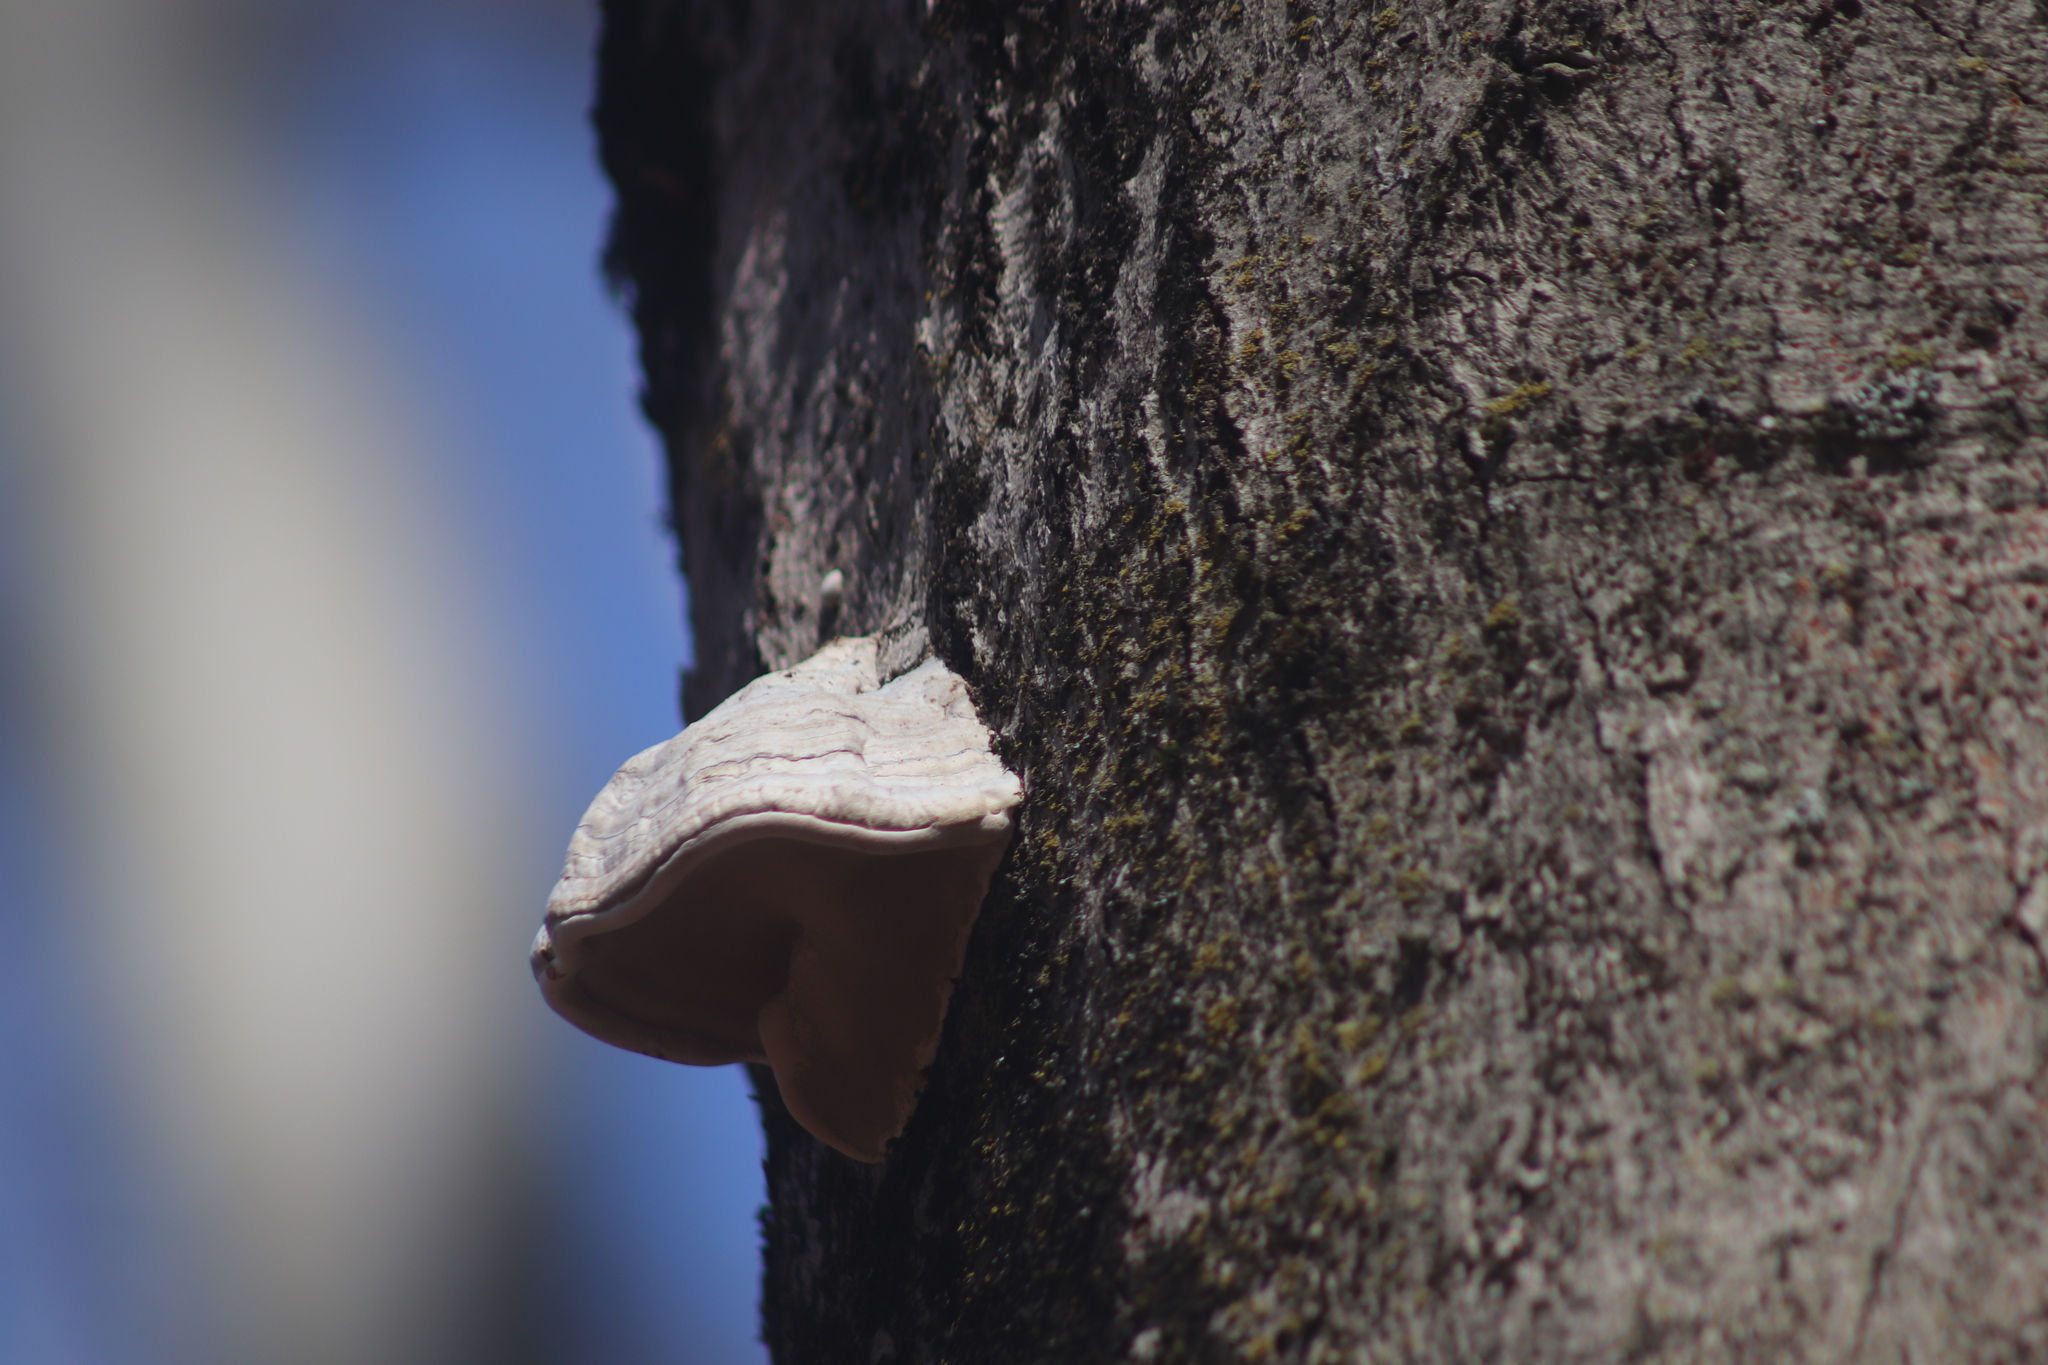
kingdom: Fungi
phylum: Basidiomycota
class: Agaricomycetes
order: Polyporales
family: Polyporaceae
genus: Fomes
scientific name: Fomes fomentarius
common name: Hoof fungus
